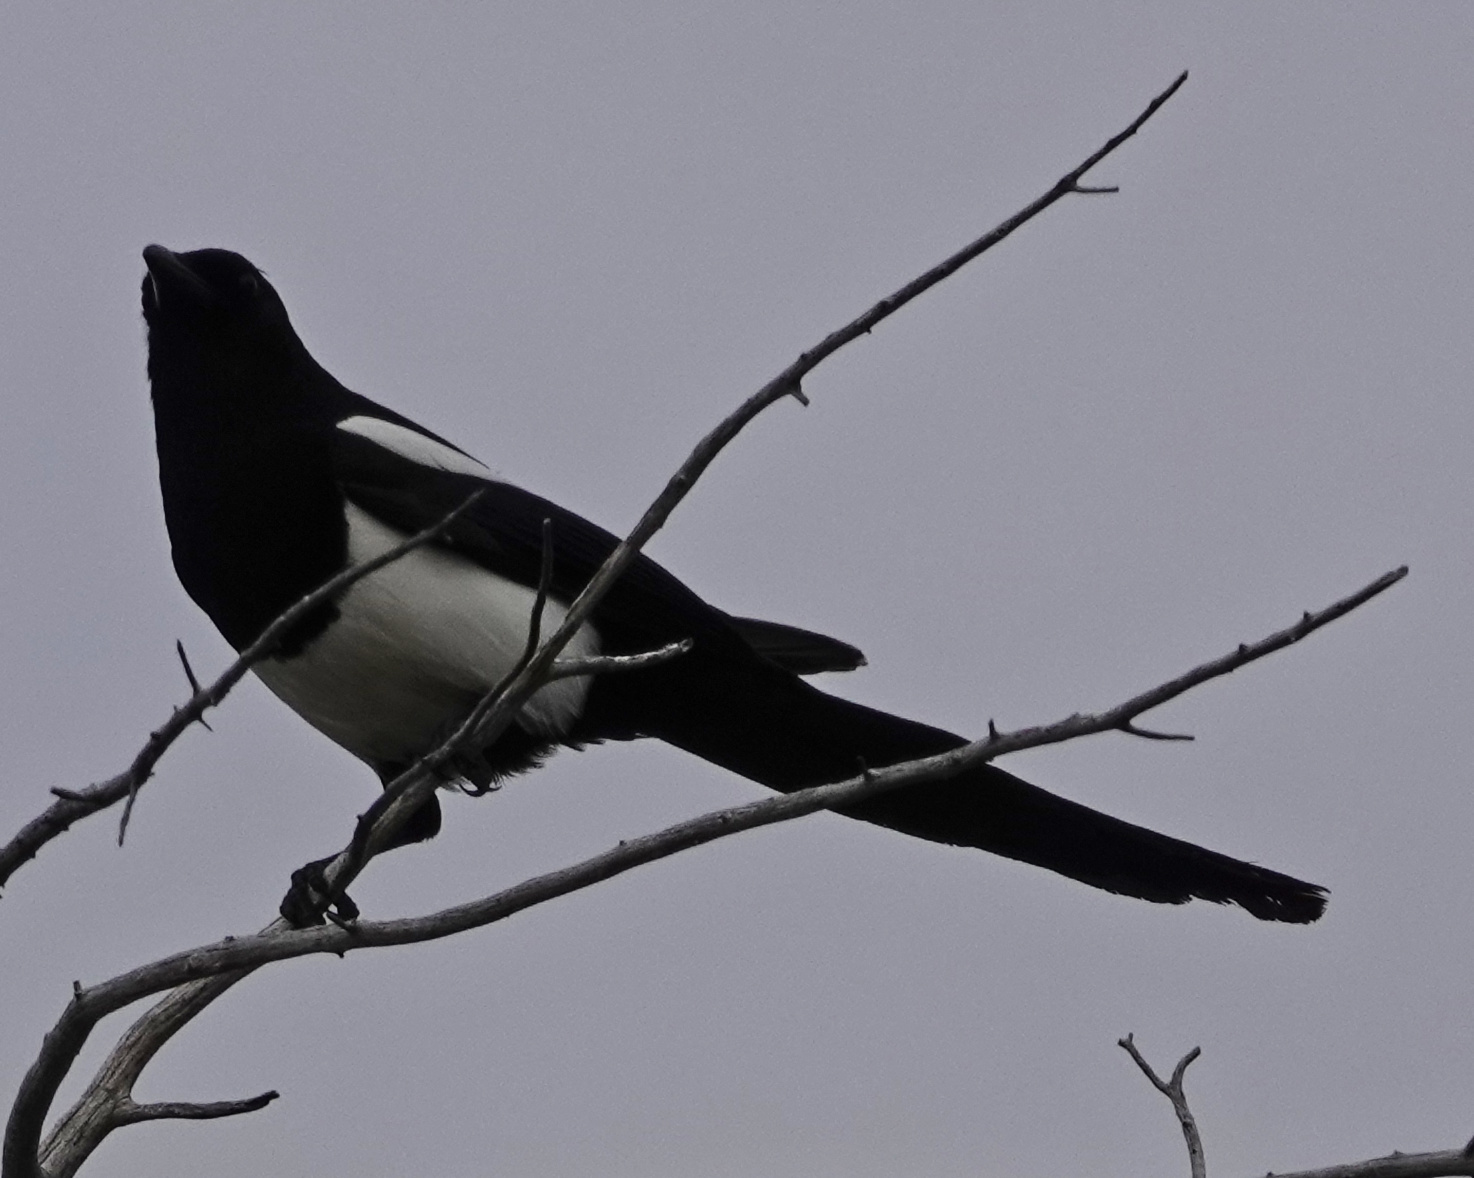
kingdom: Animalia
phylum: Chordata
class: Aves
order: Passeriformes
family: Corvidae
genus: Pica
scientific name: Pica hudsonia
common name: Black-billed magpie
